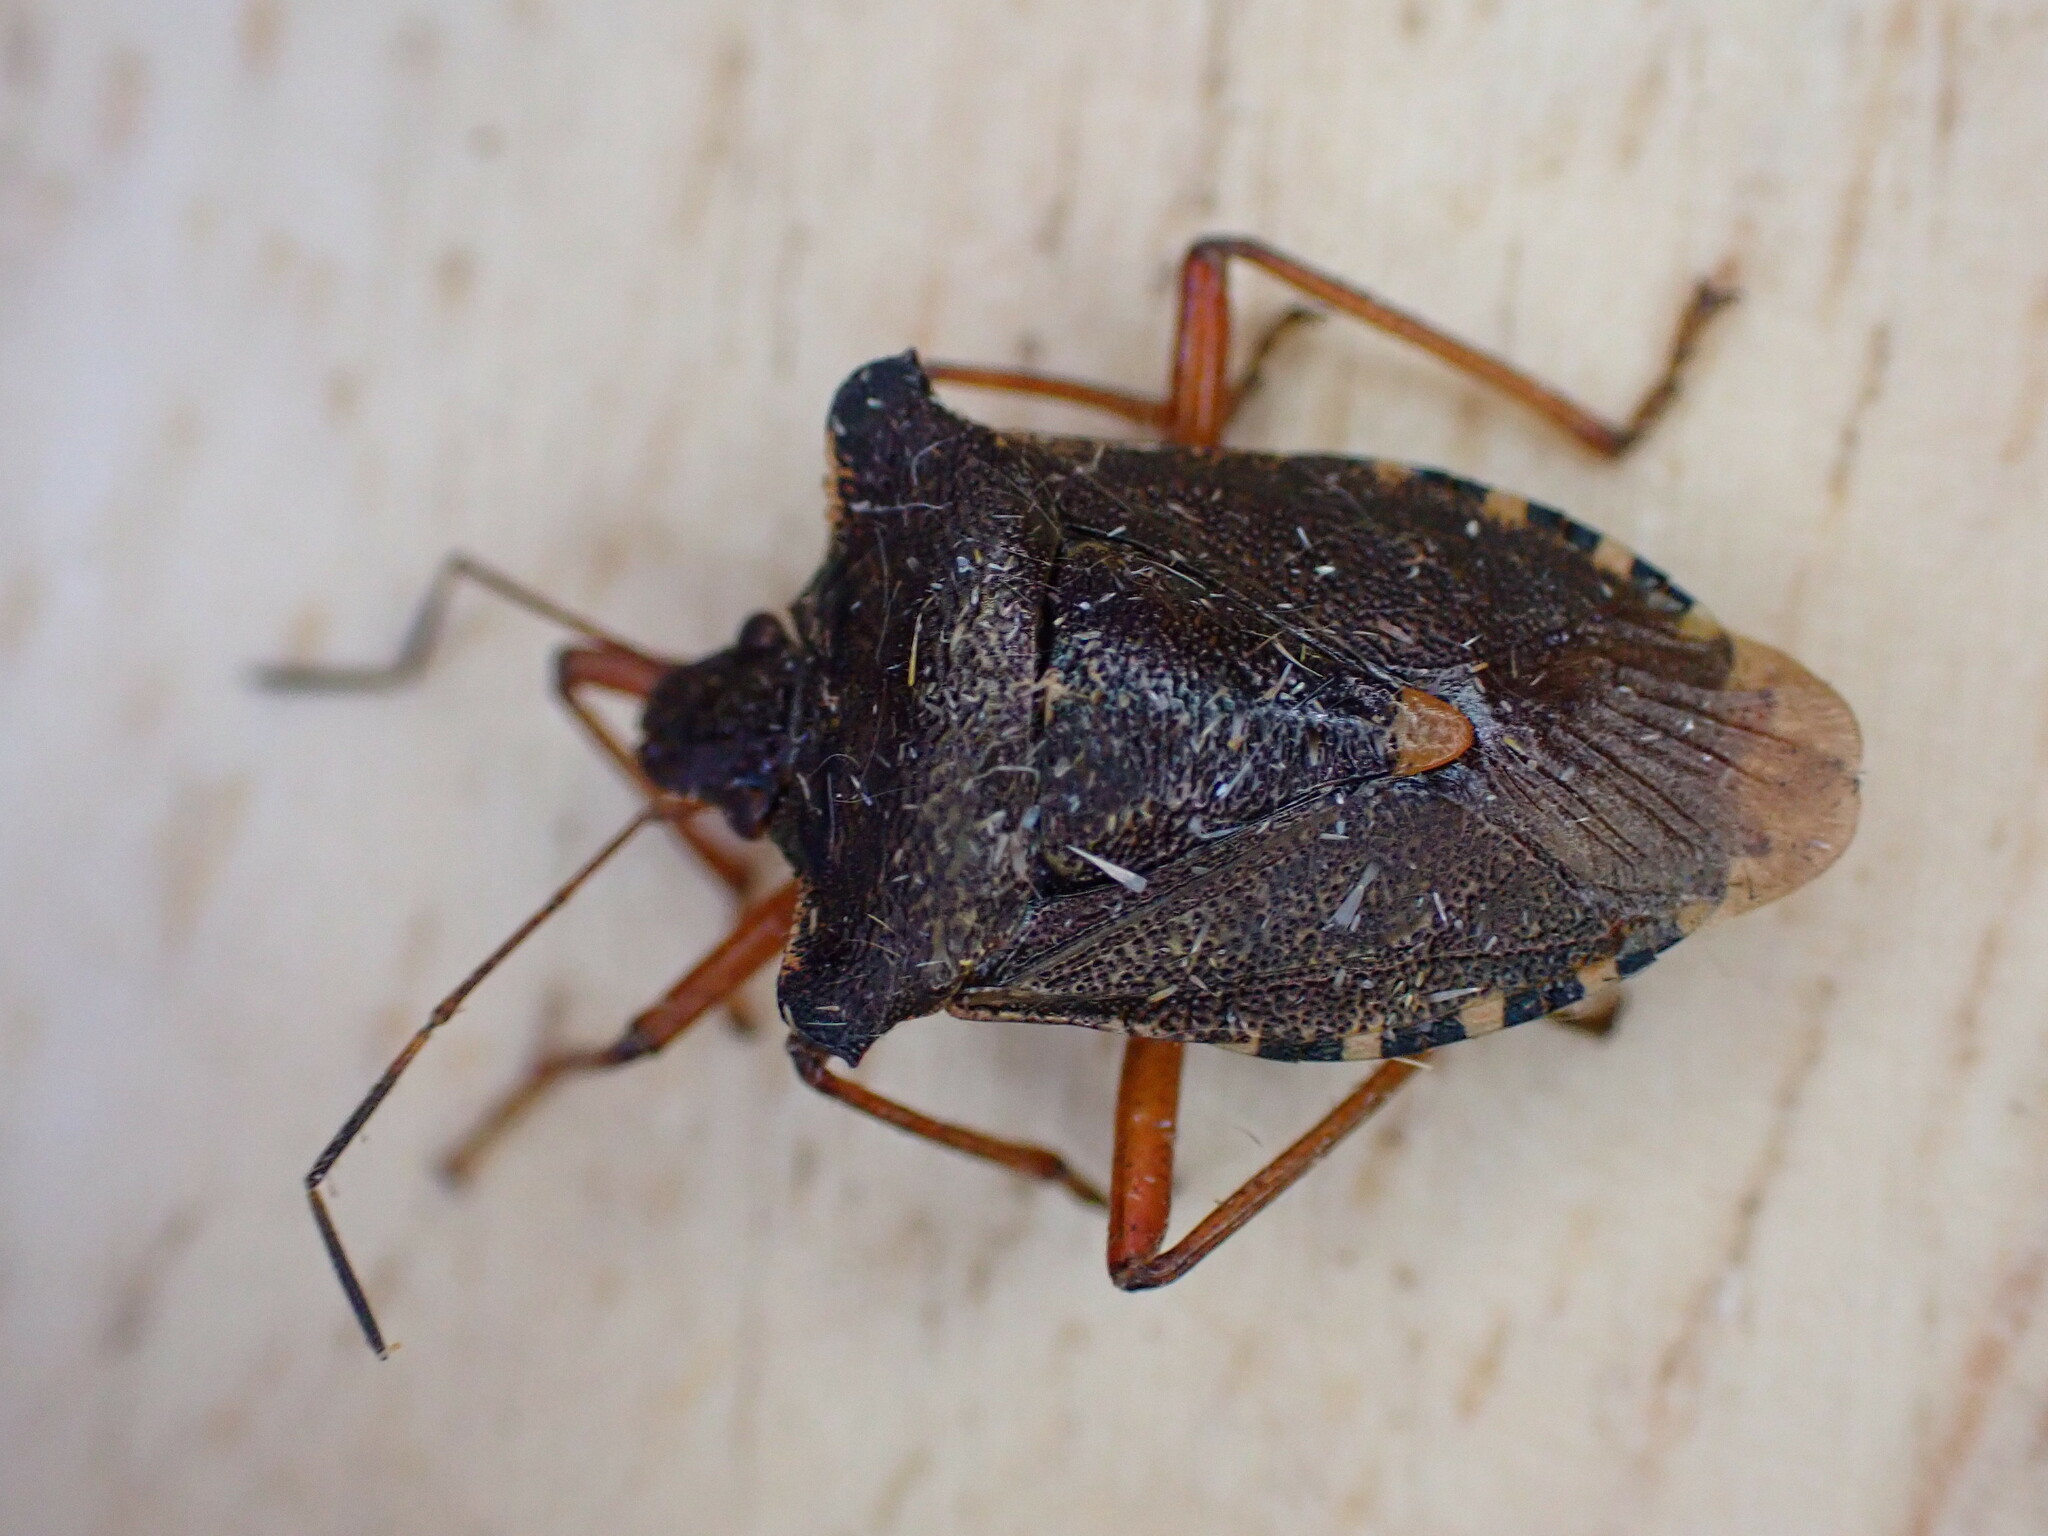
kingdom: Animalia
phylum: Arthropoda
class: Insecta
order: Hemiptera
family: Pentatomidae
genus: Pentatoma
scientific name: Pentatoma rufipes
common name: Forest bug
